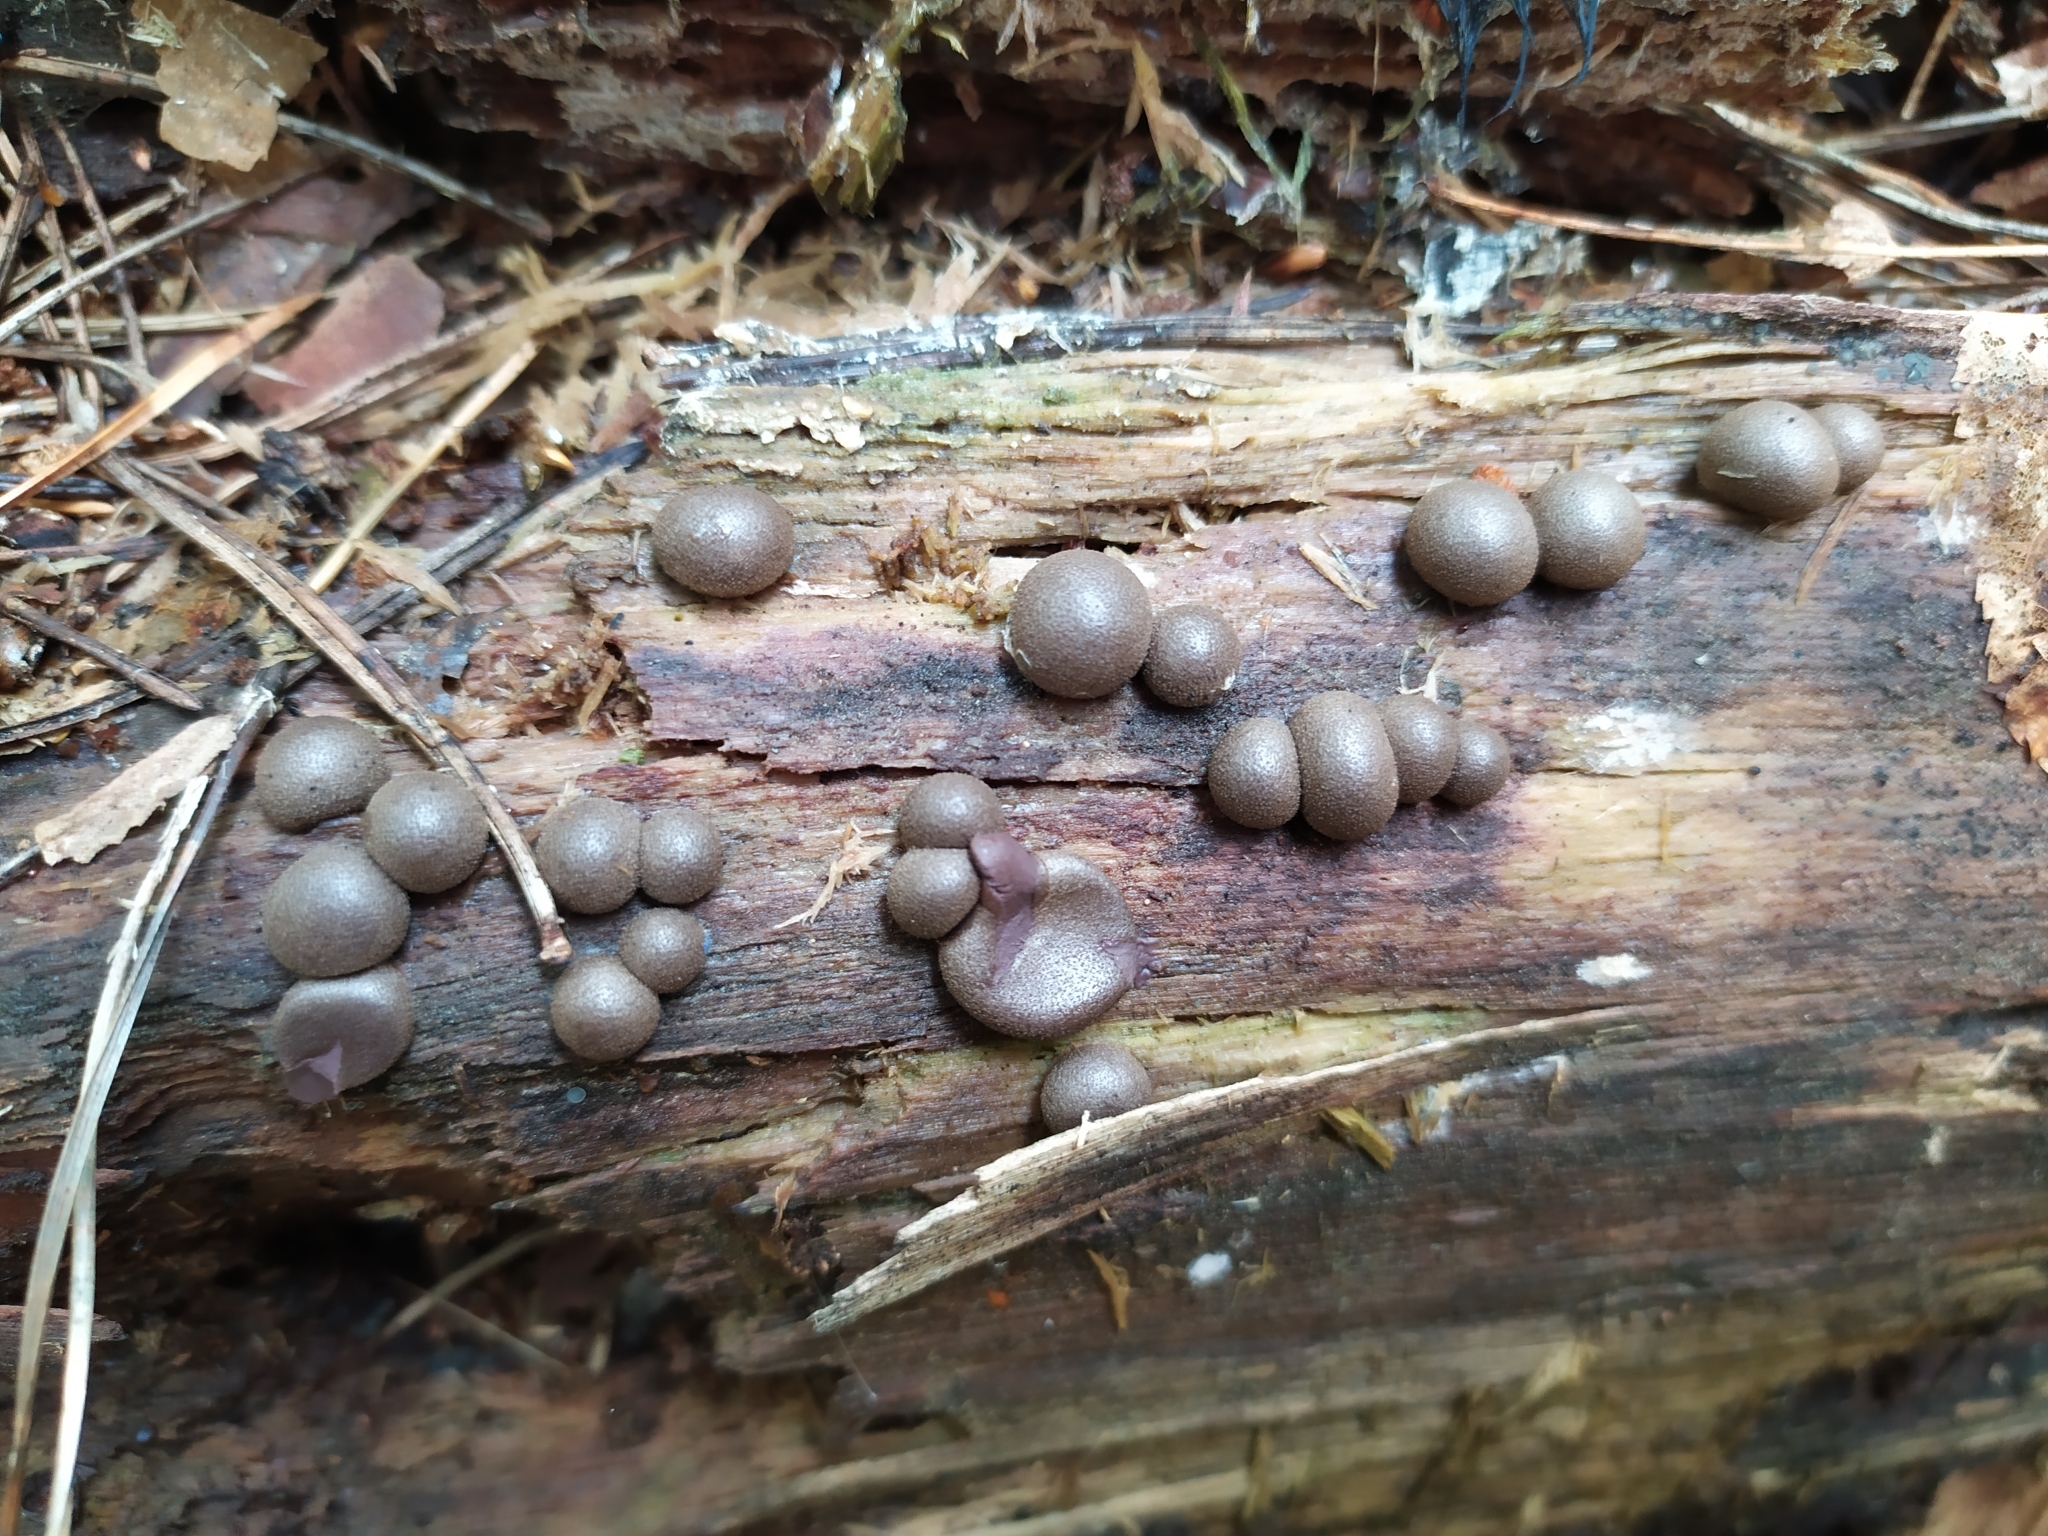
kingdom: Protozoa
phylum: Mycetozoa
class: Myxomycetes
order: Cribrariales
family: Tubiferaceae
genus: Lycogala
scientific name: Lycogala epidendrum
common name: Wolf's milk
